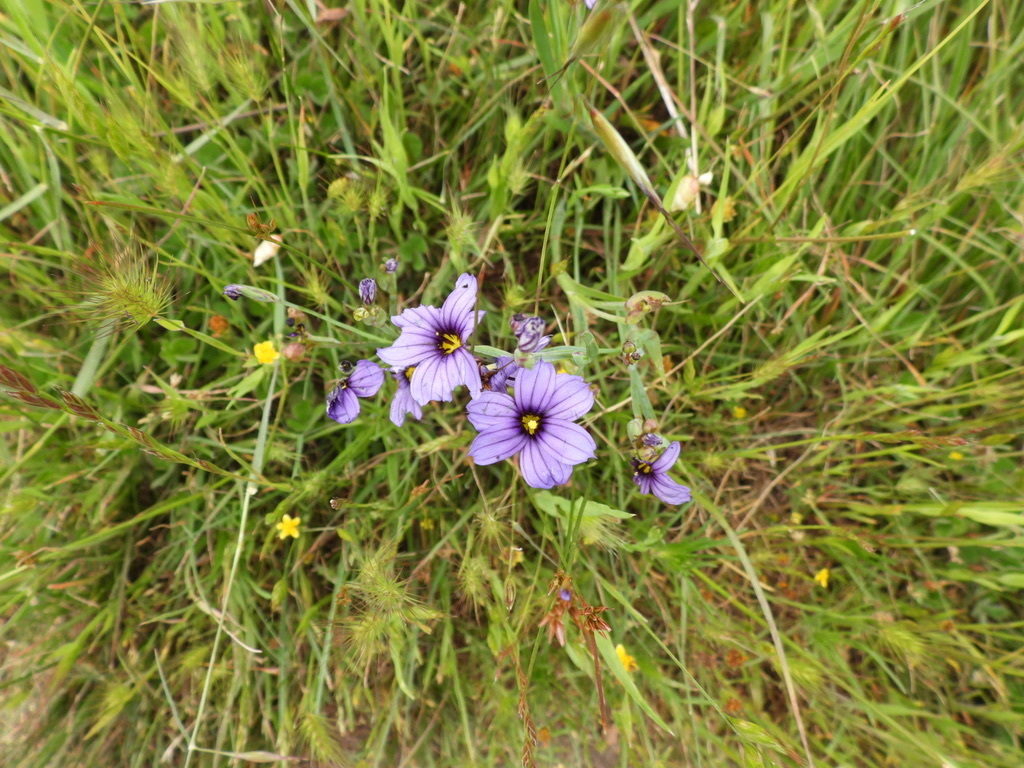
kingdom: Plantae
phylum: Tracheophyta
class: Liliopsida
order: Asparagales
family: Iridaceae
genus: Sisyrinchium
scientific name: Sisyrinchium bellum
